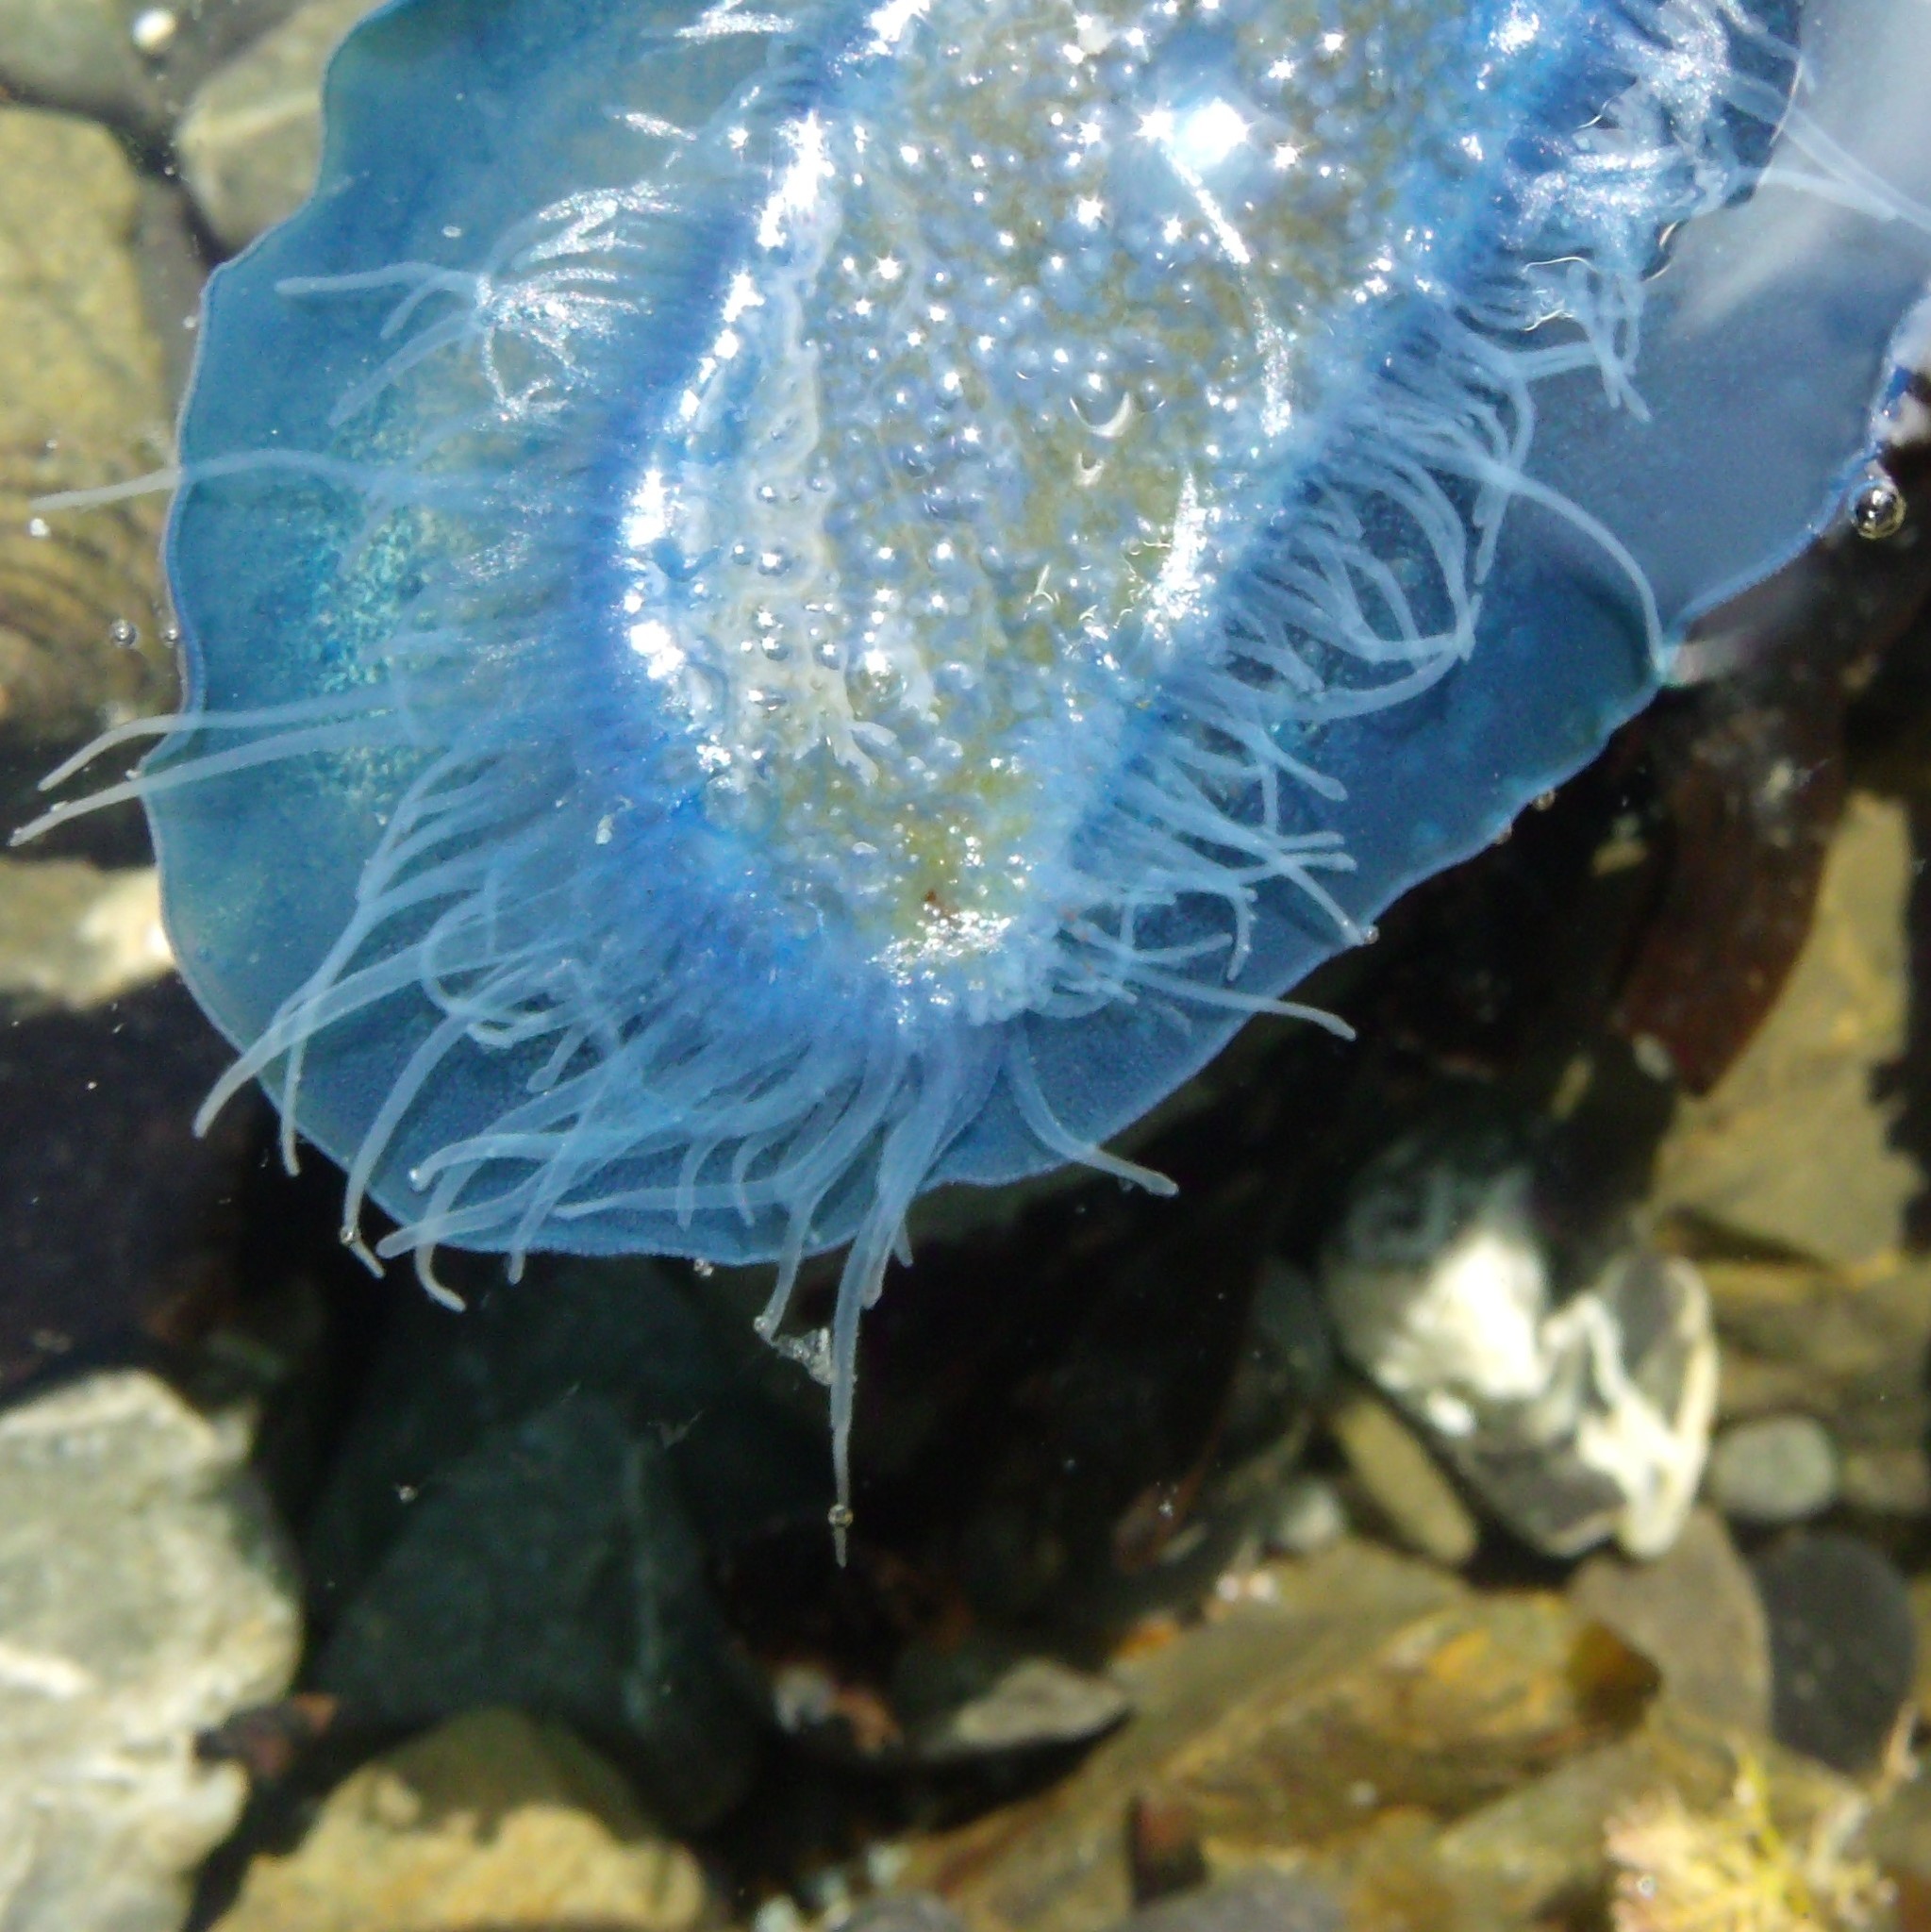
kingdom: Animalia
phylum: Cnidaria
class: Hydrozoa
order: Anthoathecata
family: Porpitidae
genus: Velella
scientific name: Velella velella
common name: By-the-wind-sailor
